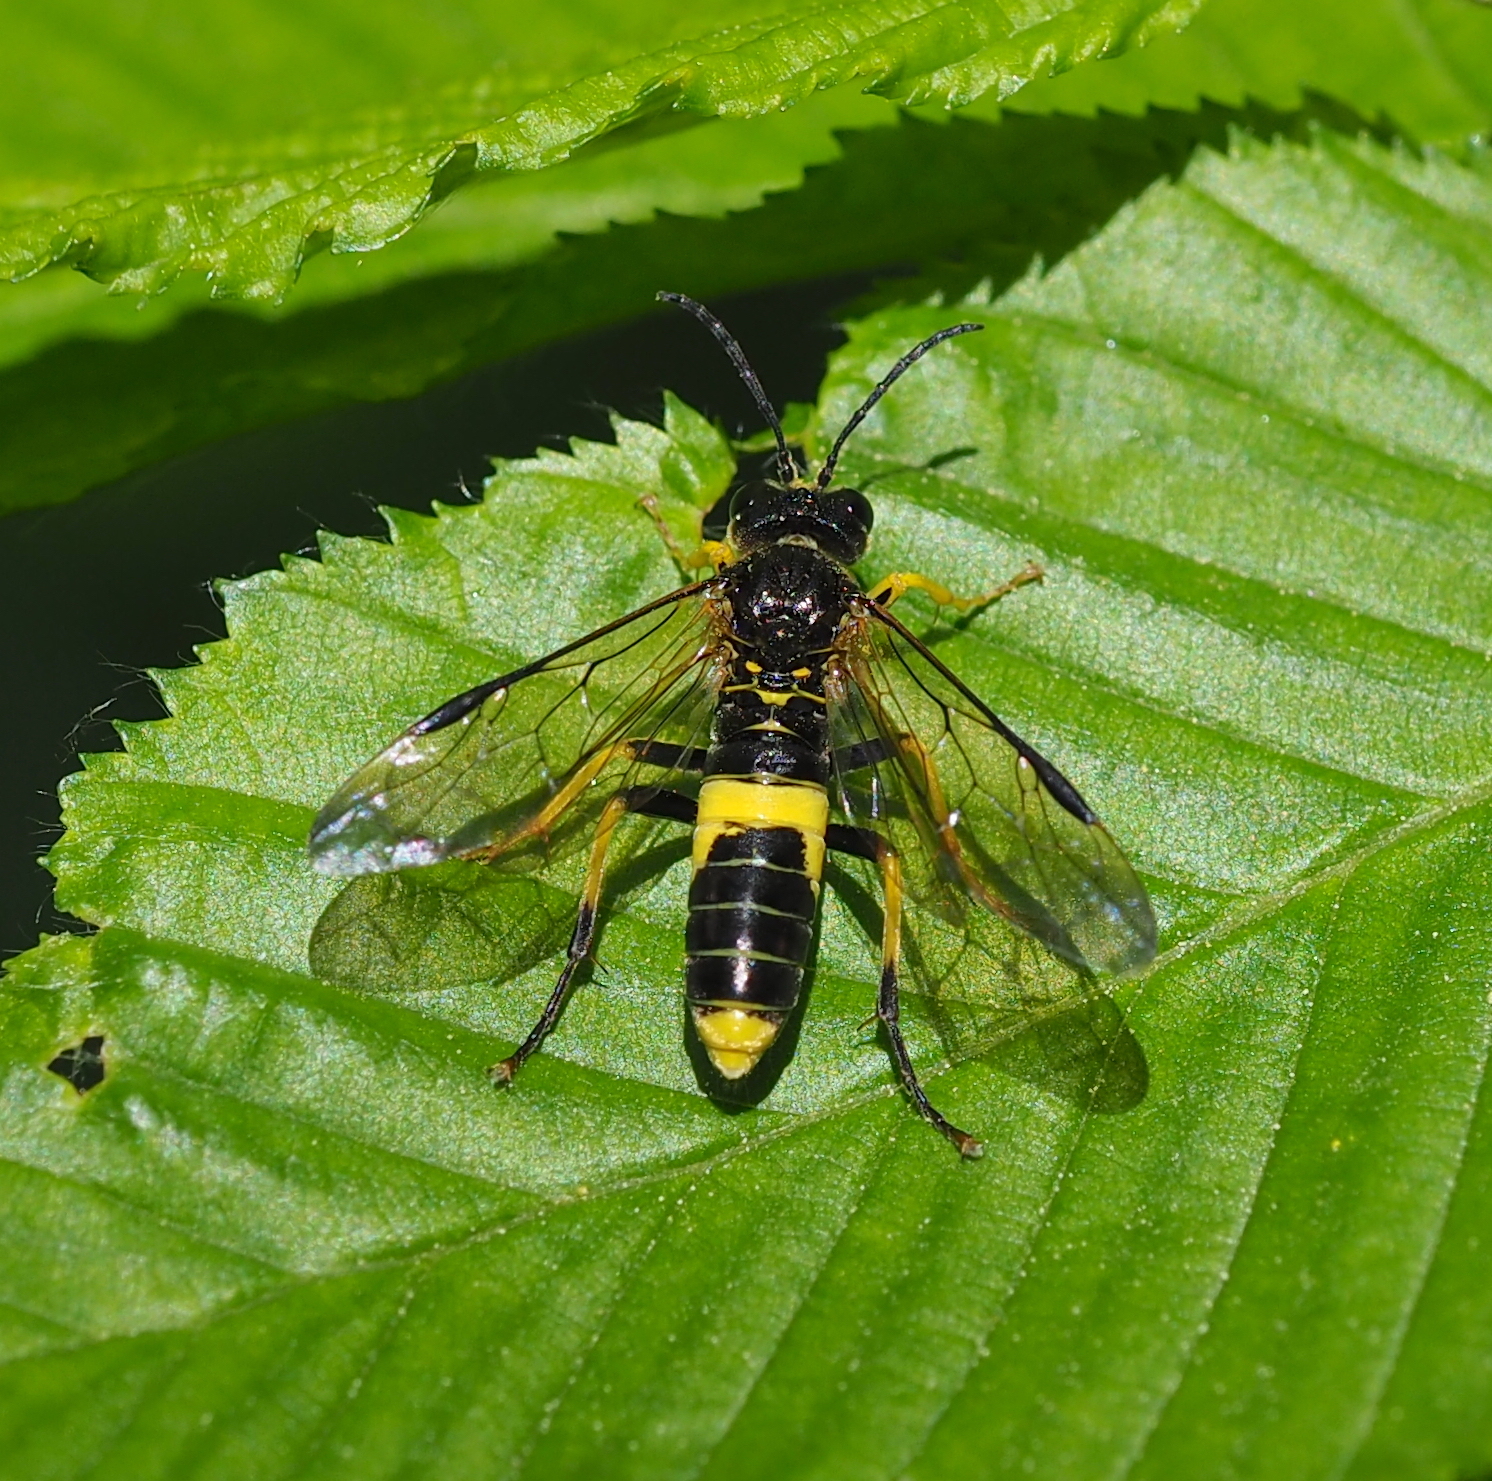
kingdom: Animalia
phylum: Arthropoda
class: Insecta
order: Hymenoptera
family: Tenthredinidae
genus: Tenthredo
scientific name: Tenthredo temula
